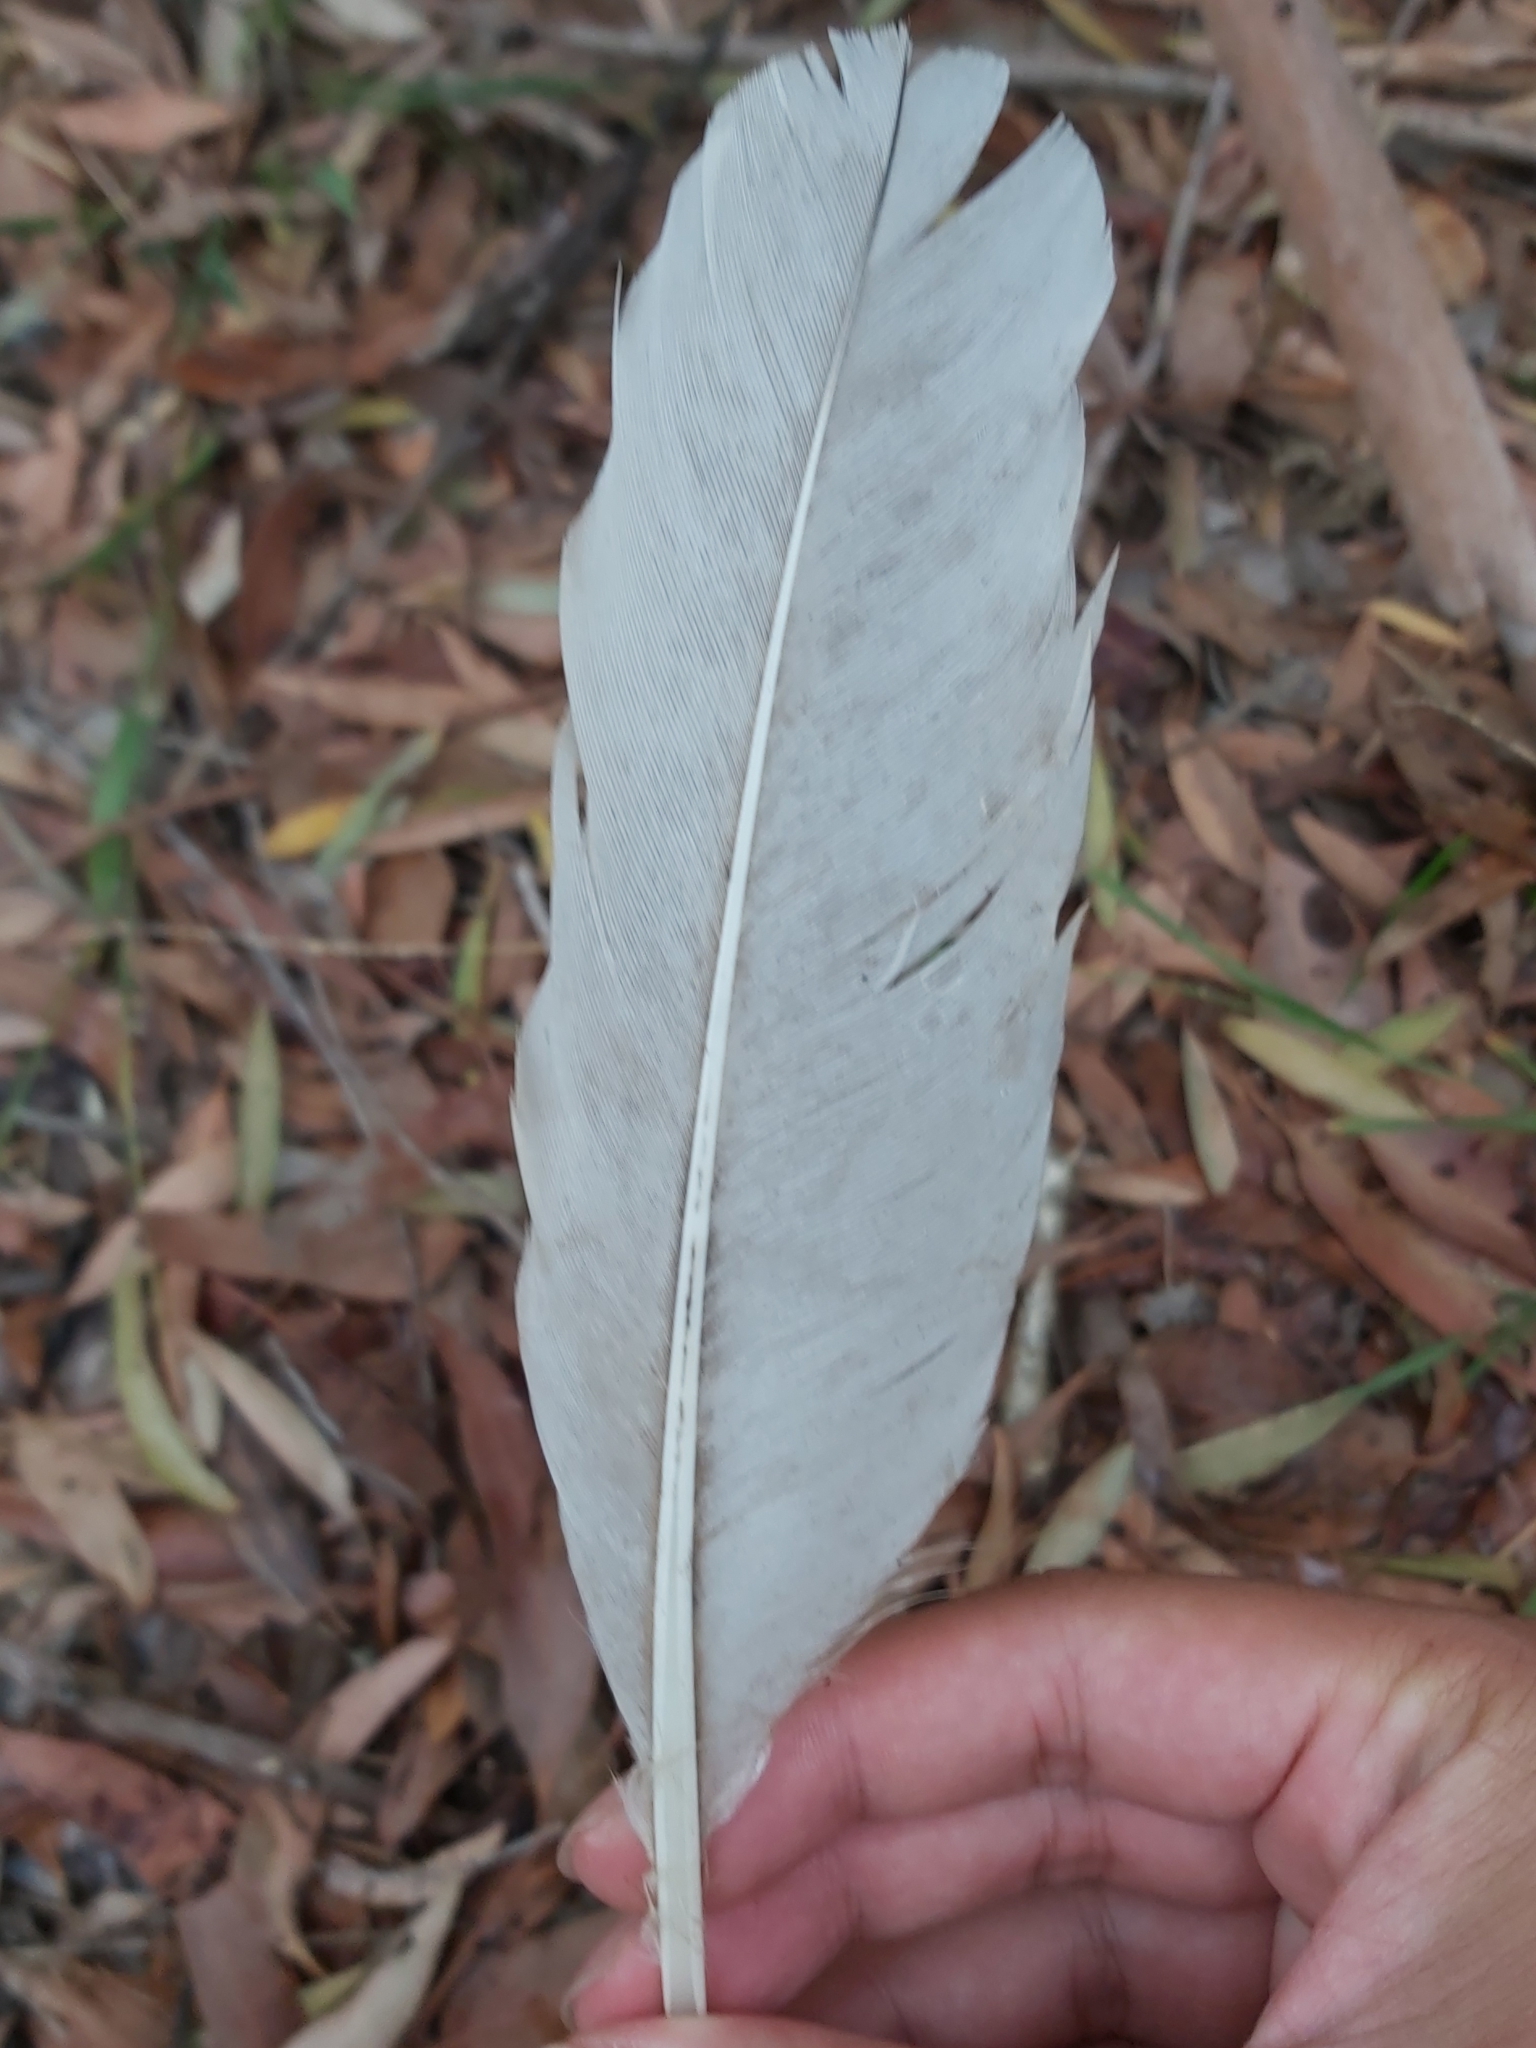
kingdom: Animalia
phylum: Chordata
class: Aves
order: Pelecaniformes
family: Threskiornithidae
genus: Threskiornis
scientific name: Threskiornis molucca
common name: Australian white ibis
